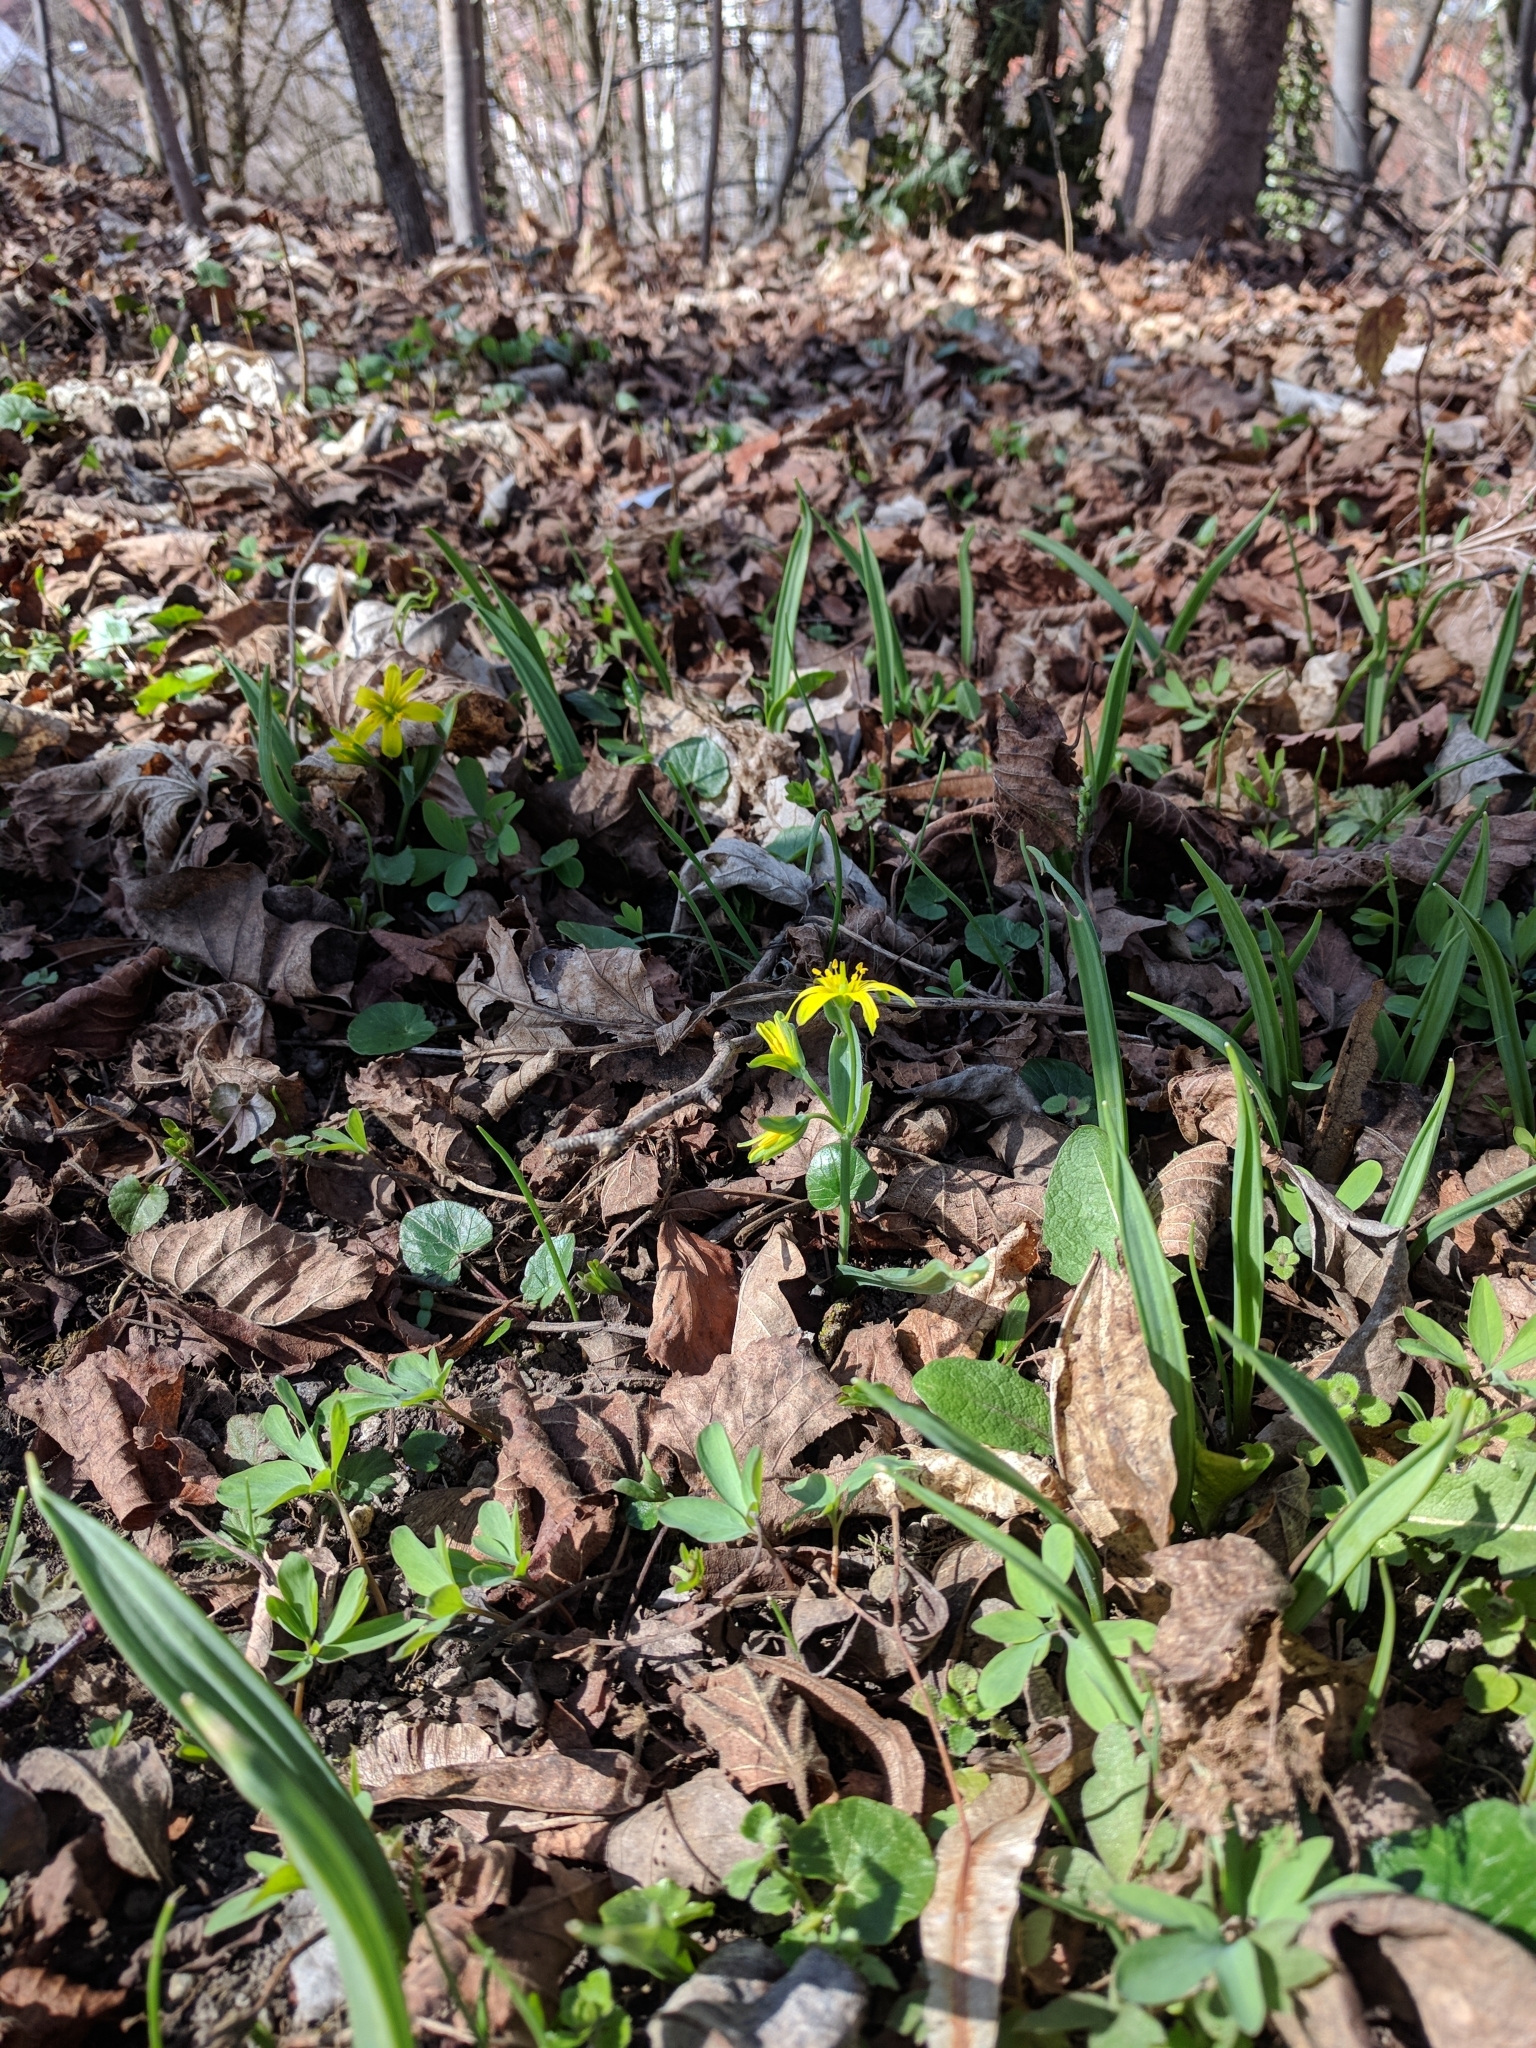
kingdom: Plantae
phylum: Tracheophyta
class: Liliopsida
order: Liliales
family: Liliaceae
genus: Gagea
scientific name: Gagea lutea
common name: Yellow star-of-bethlehem
